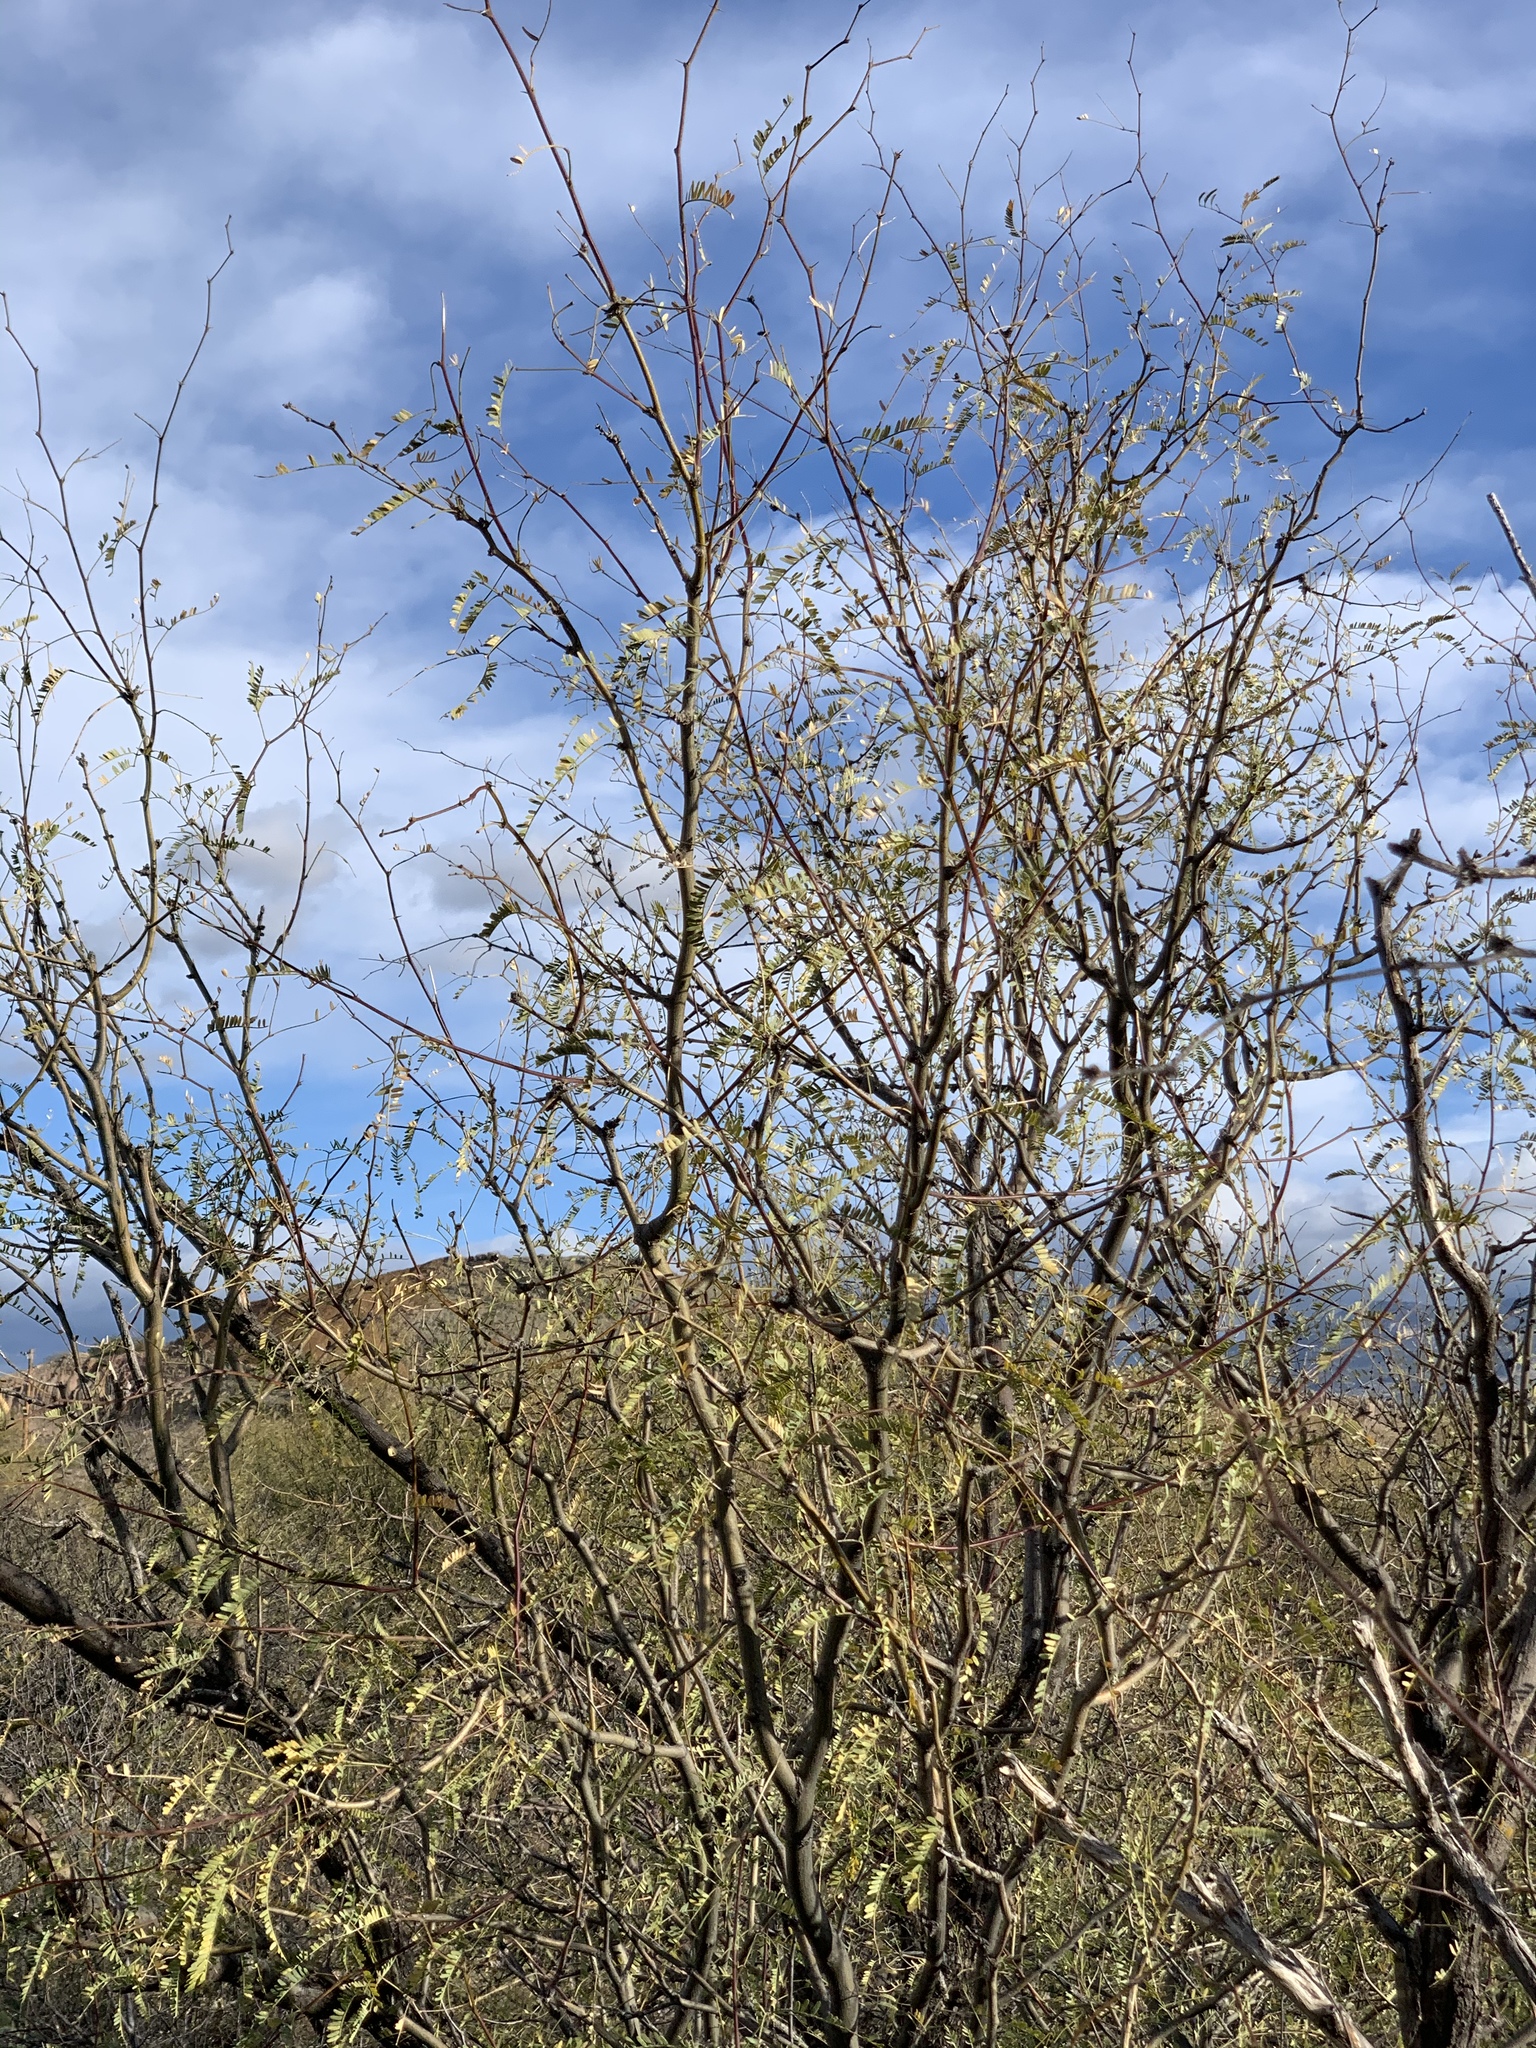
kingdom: Plantae
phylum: Tracheophyta
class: Magnoliopsida
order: Fabales
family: Fabaceae
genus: Prosopis
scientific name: Prosopis velutina
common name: Velvet mesquite
